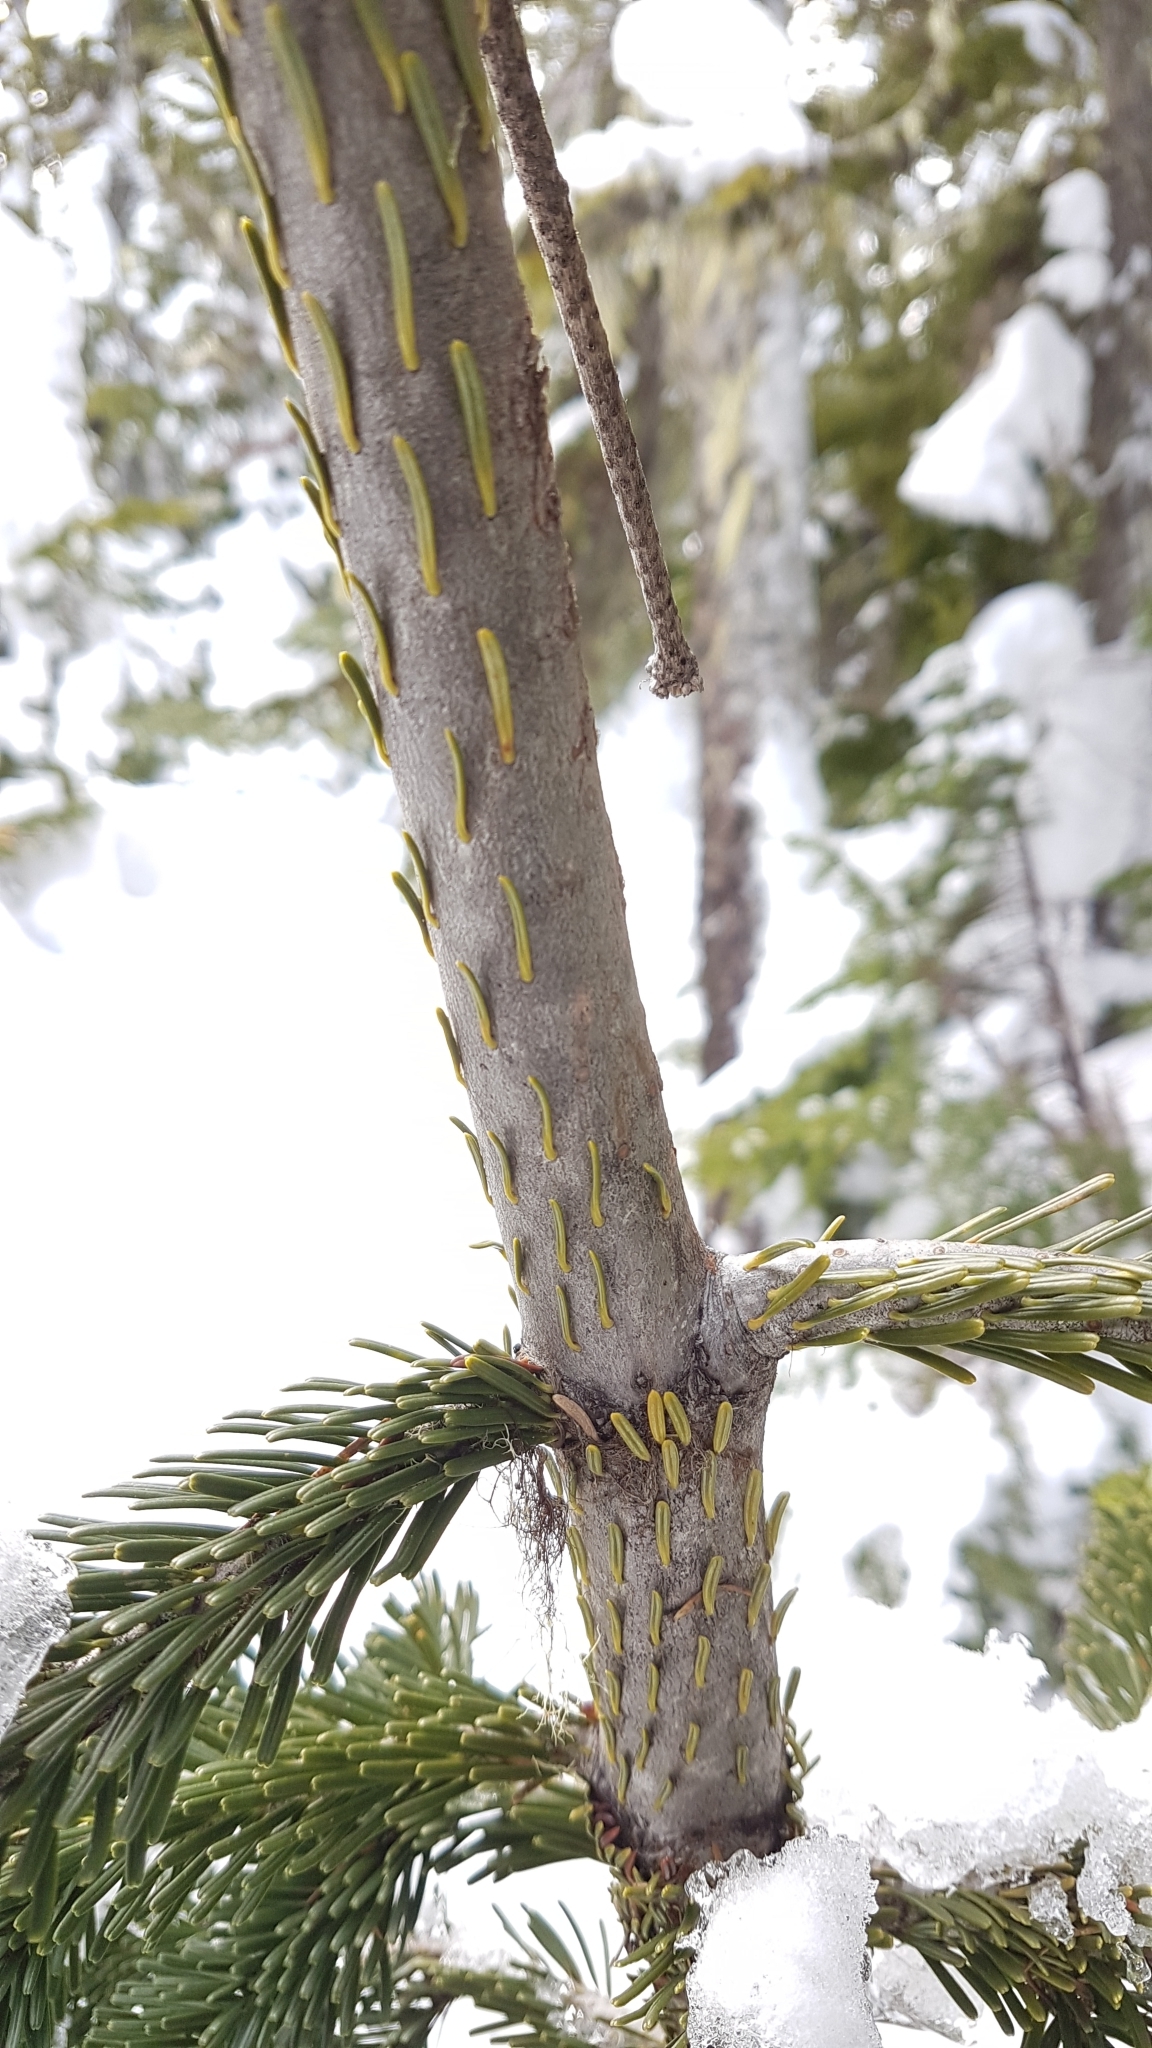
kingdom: Plantae
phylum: Tracheophyta
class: Pinopsida
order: Pinales
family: Pinaceae
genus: Abies
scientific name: Abies amabilis
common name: Pacific silver fir
